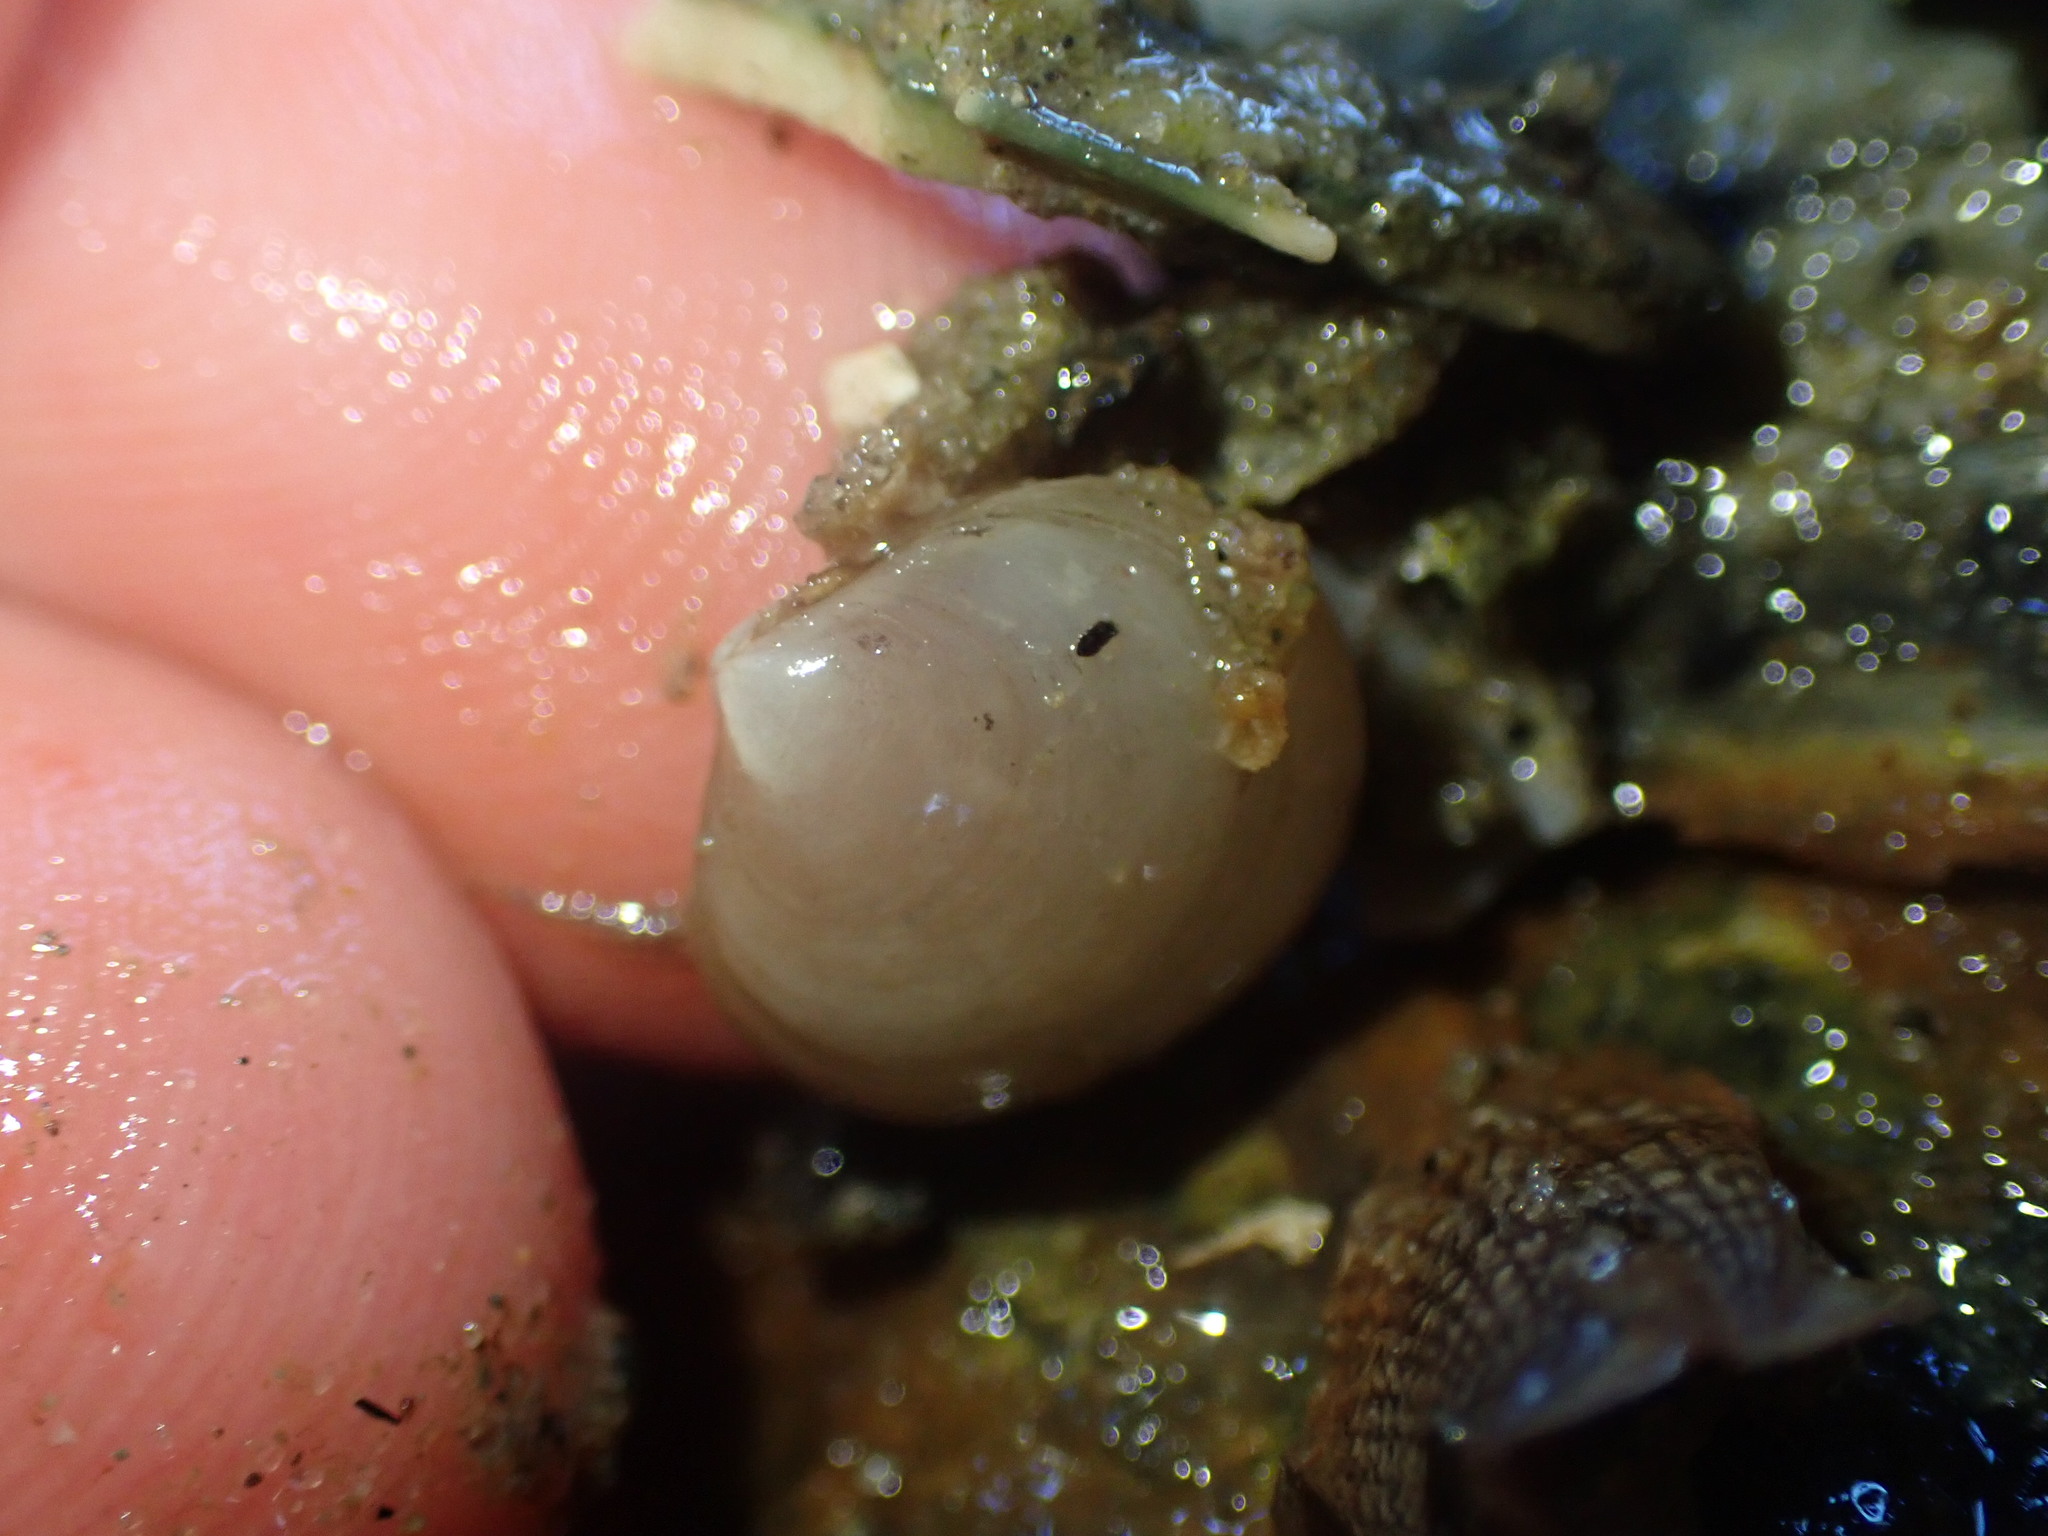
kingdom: Animalia
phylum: Mollusca
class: Bivalvia
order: Venerida
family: Ungulinidae
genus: Zemysia
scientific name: Zemysia zelandica
